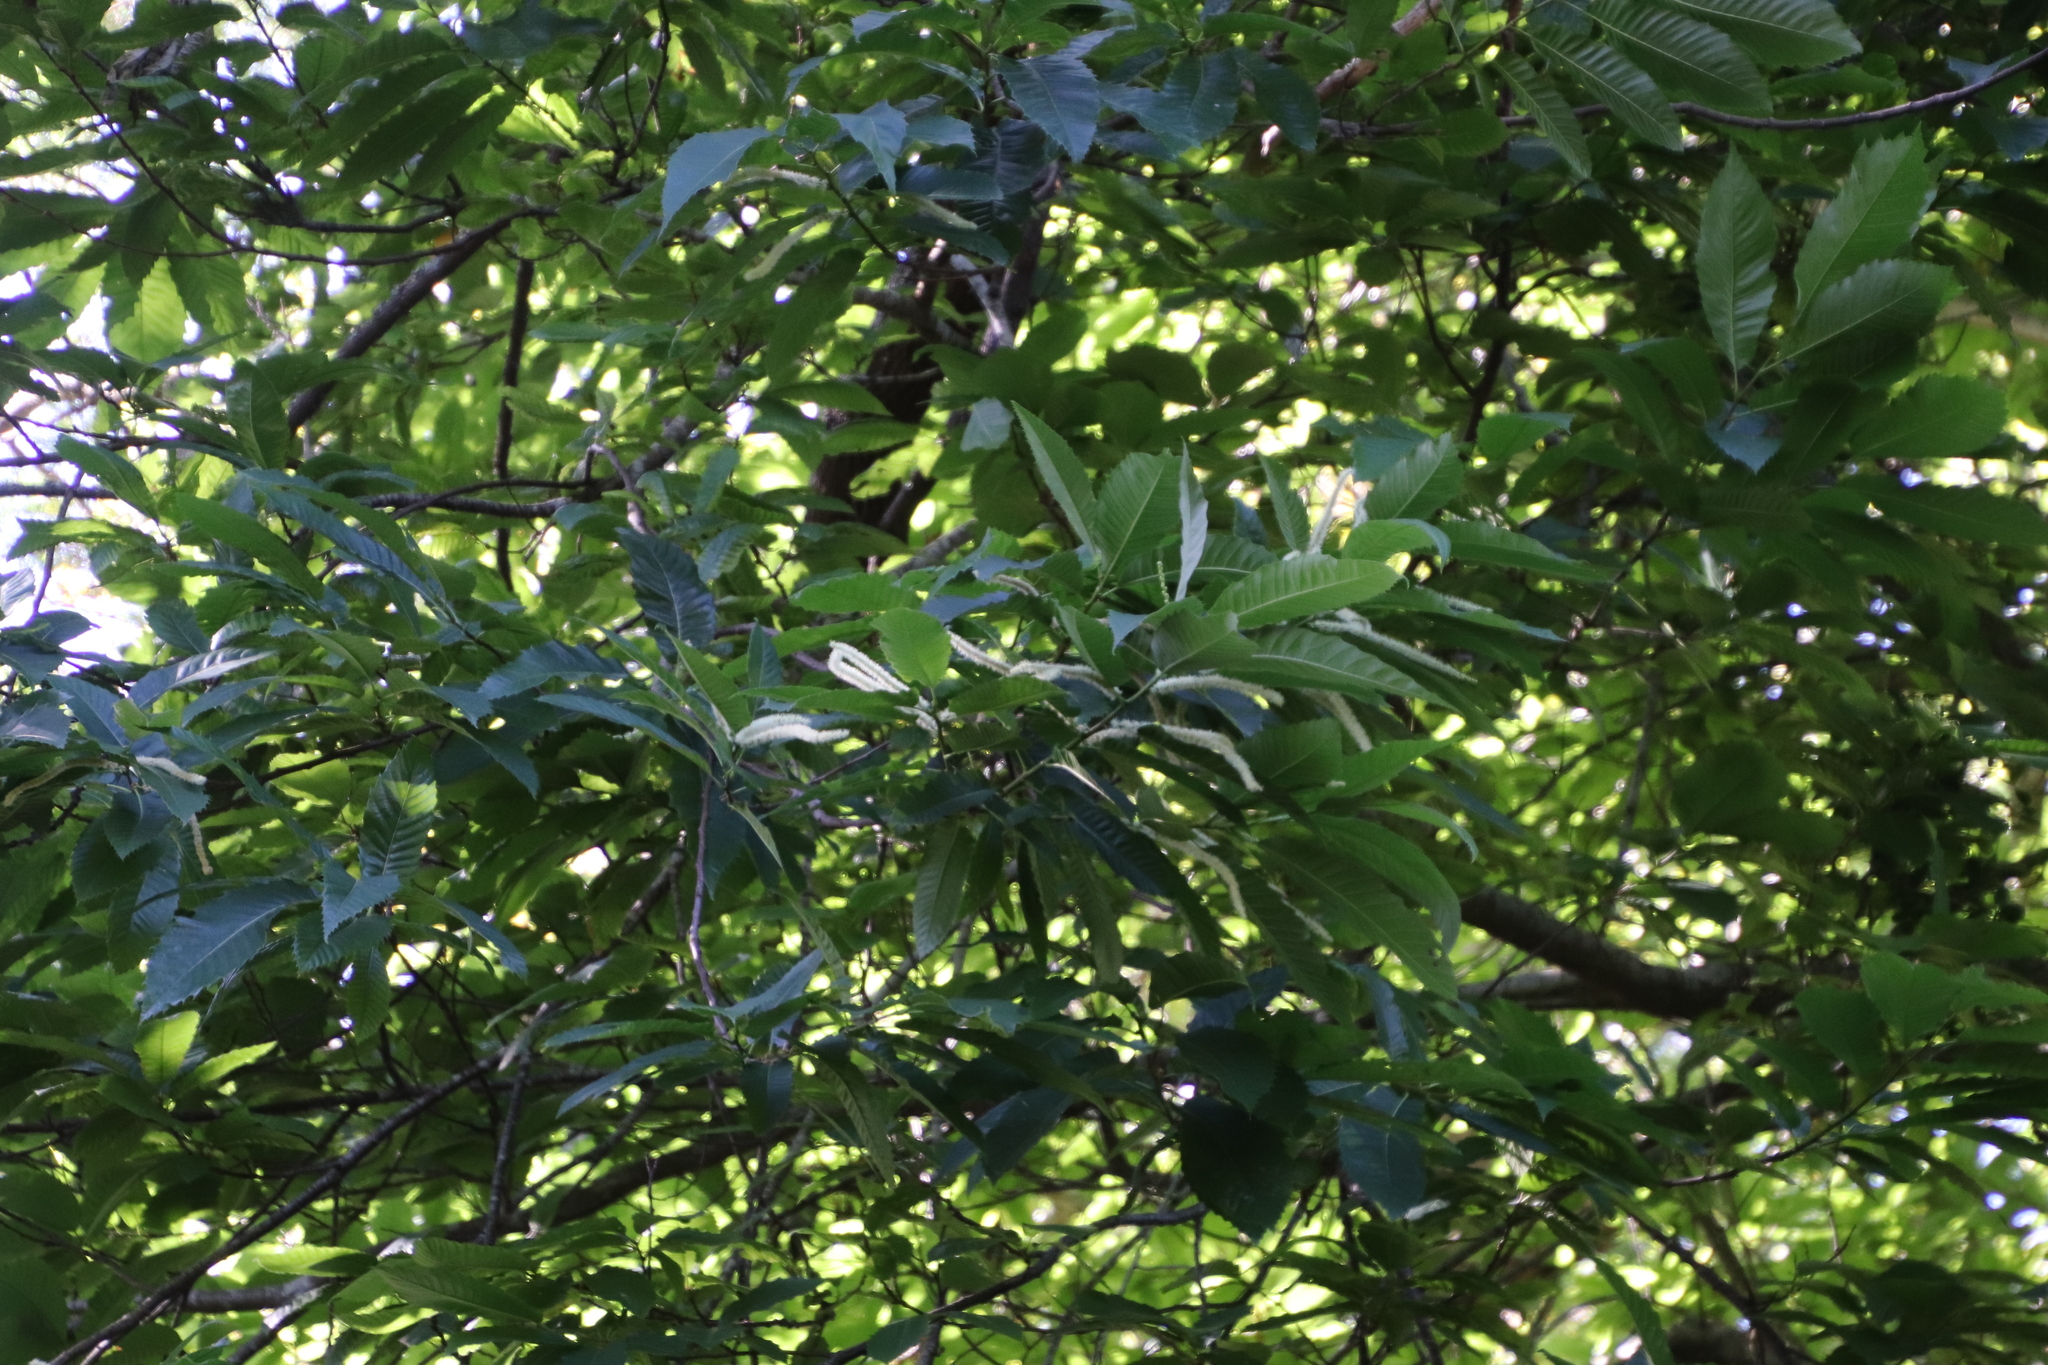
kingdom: Plantae
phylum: Tracheophyta
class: Magnoliopsida
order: Fagales
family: Fagaceae
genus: Castanea
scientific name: Castanea sativa
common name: Sweet chestnut
